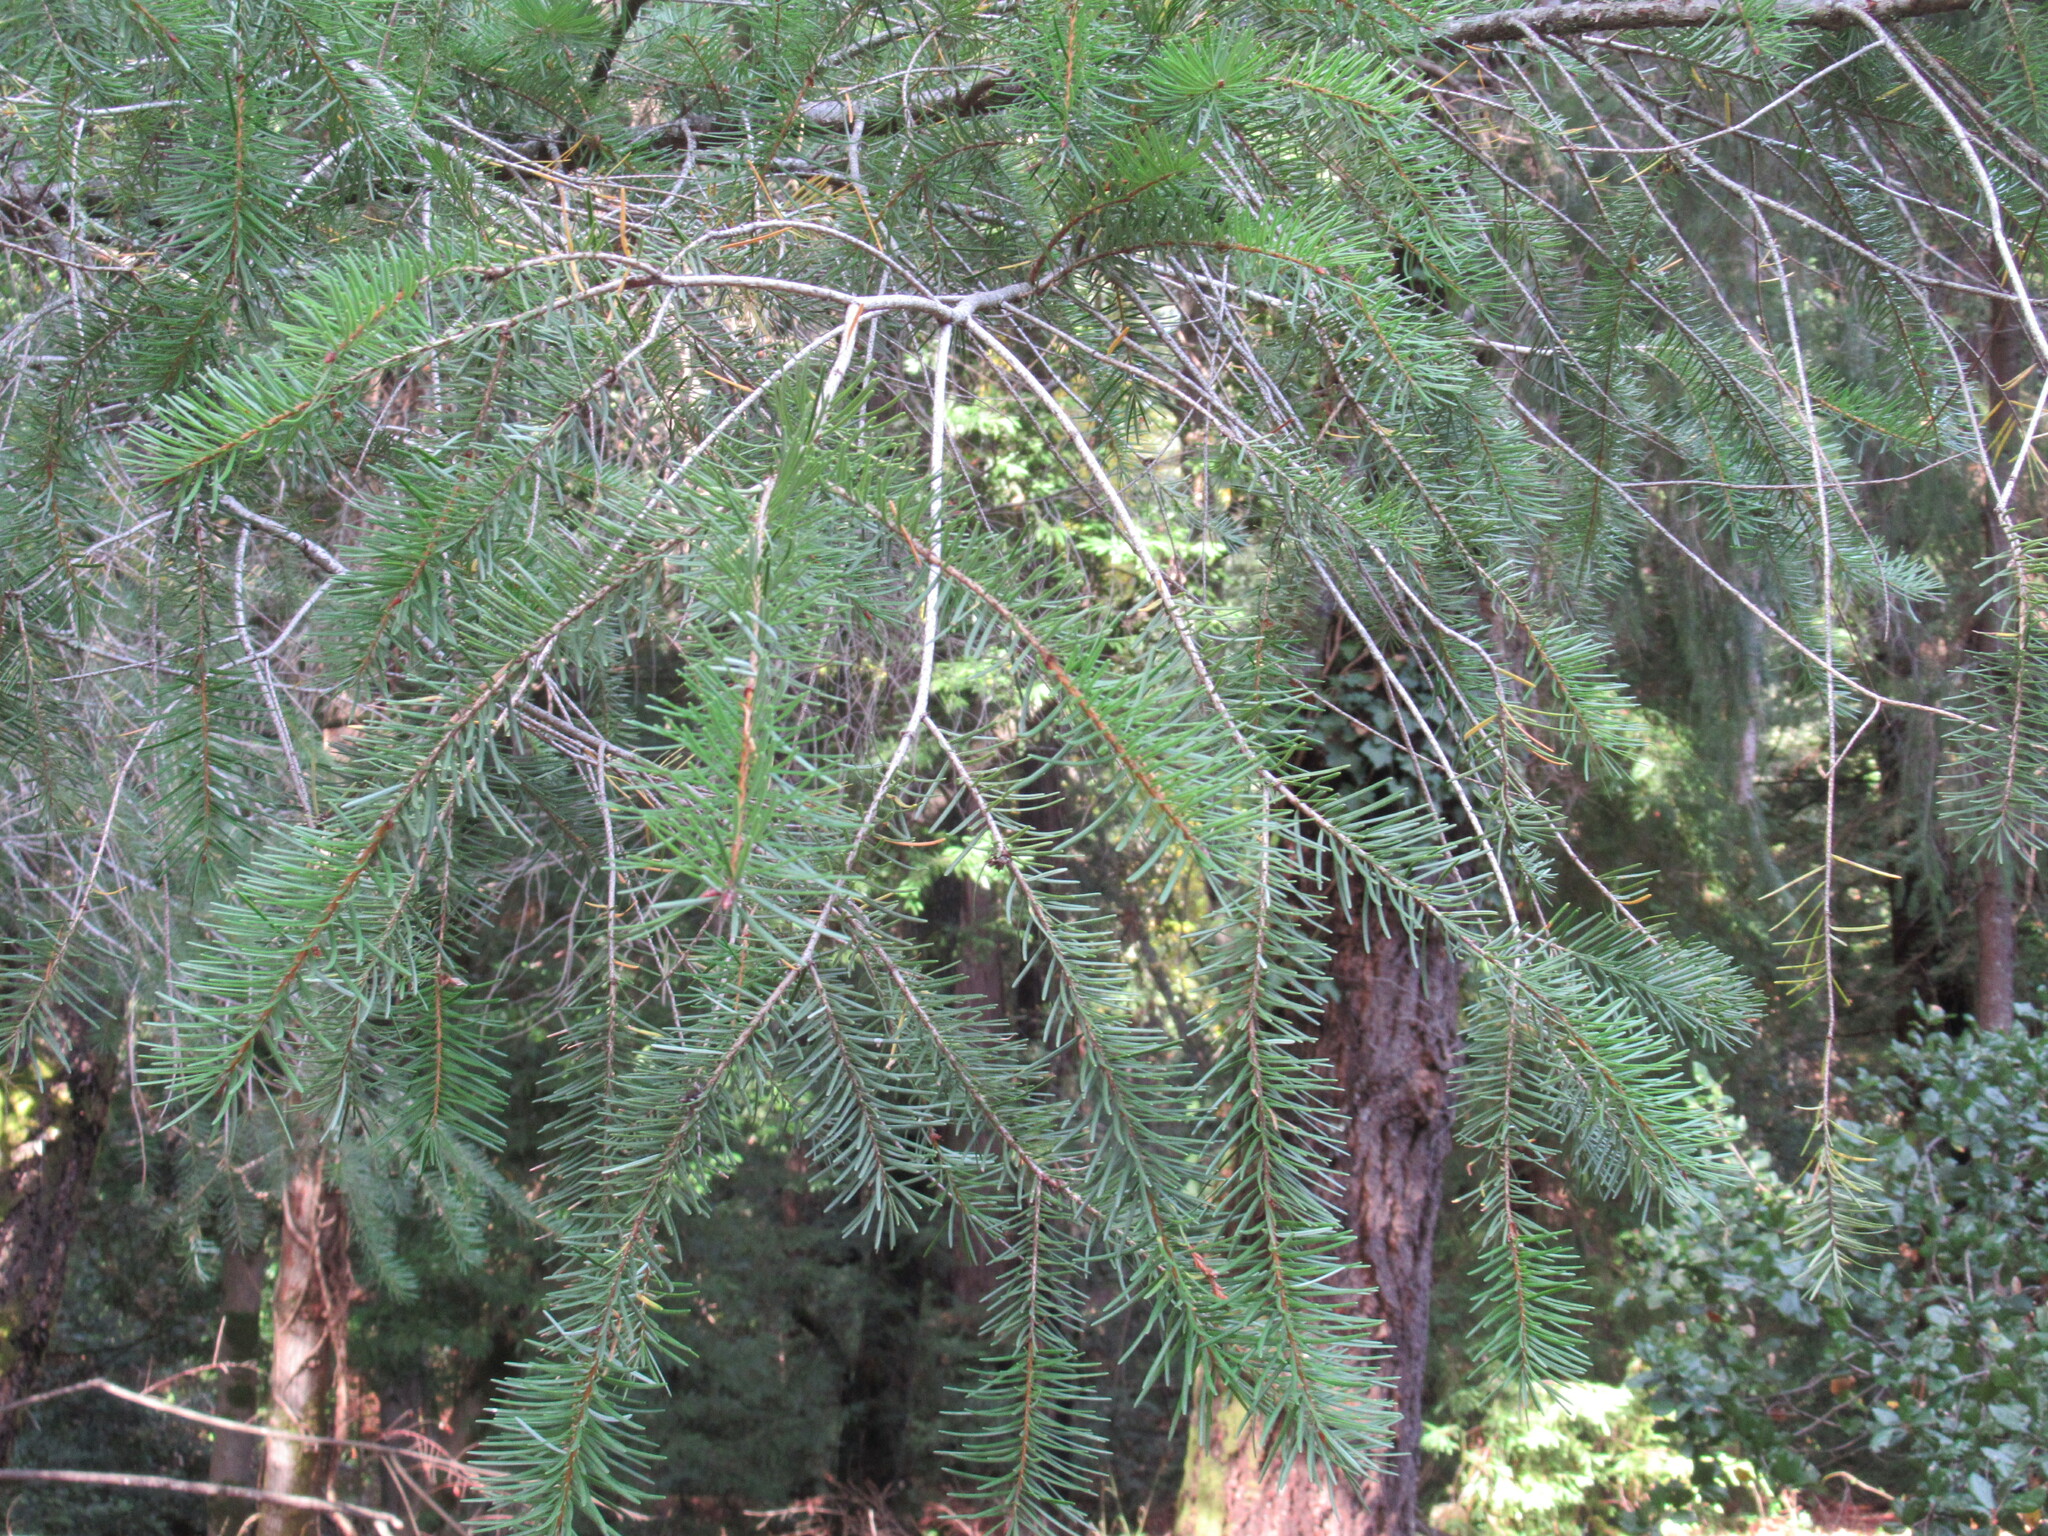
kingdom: Plantae
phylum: Tracheophyta
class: Pinopsida
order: Pinales
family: Pinaceae
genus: Pseudotsuga
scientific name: Pseudotsuga menziesii
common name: Douglas fir
